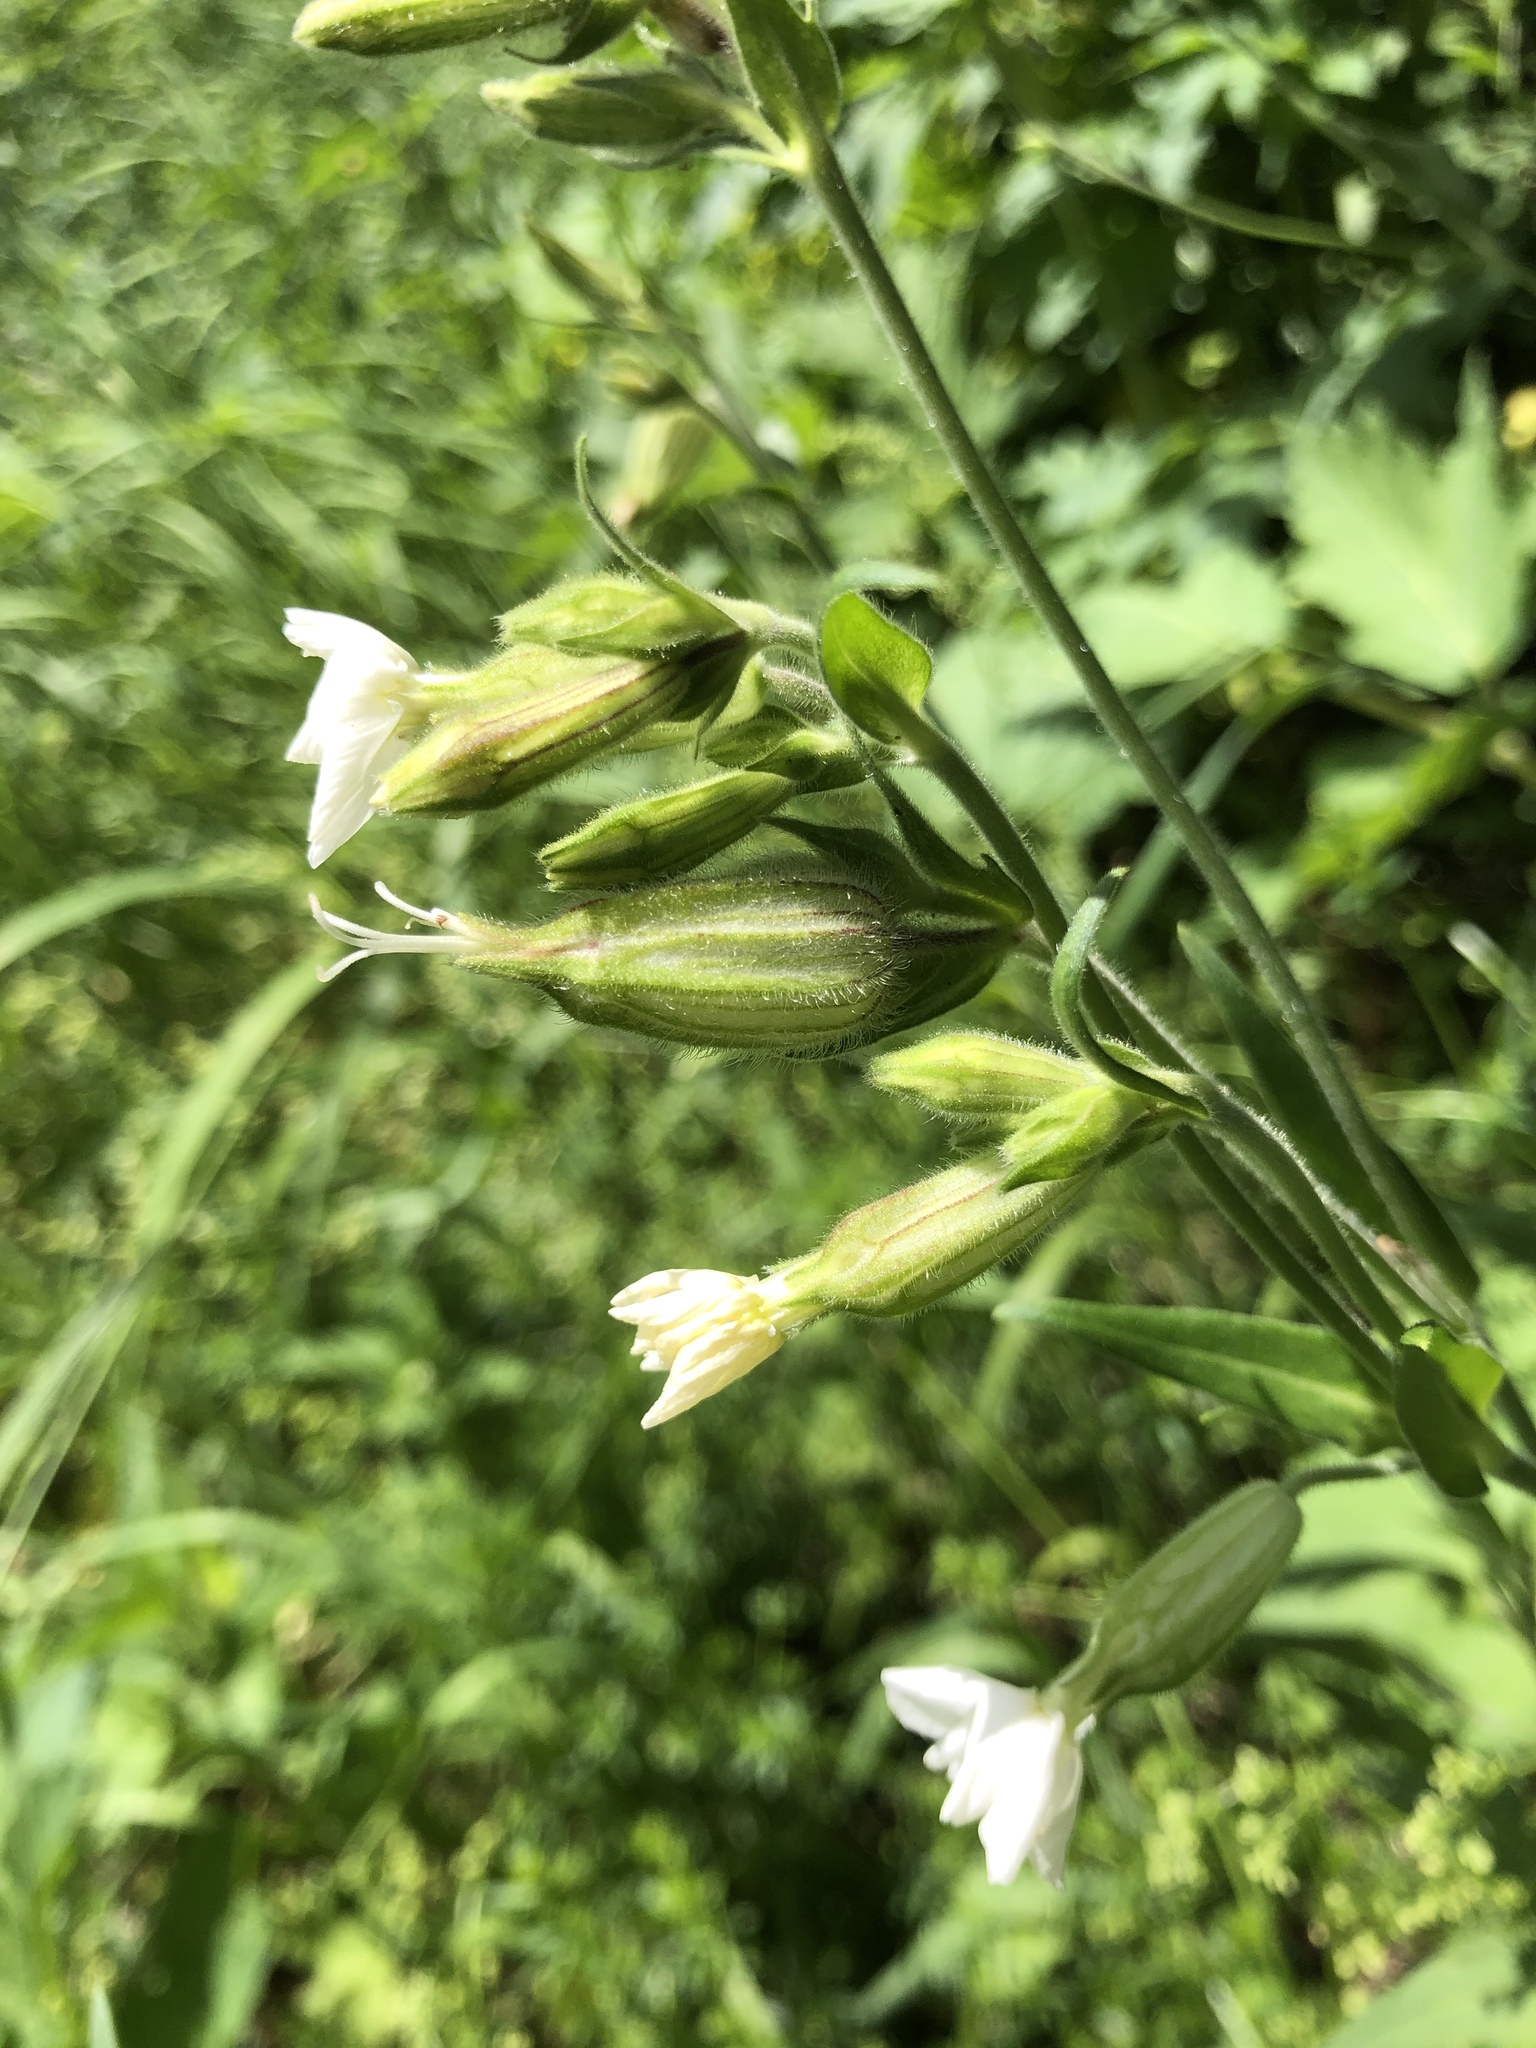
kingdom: Plantae
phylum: Tracheophyta
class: Magnoliopsida
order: Caryophyllales
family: Caryophyllaceae
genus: Silene
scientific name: Silene latifolia
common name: White campion
